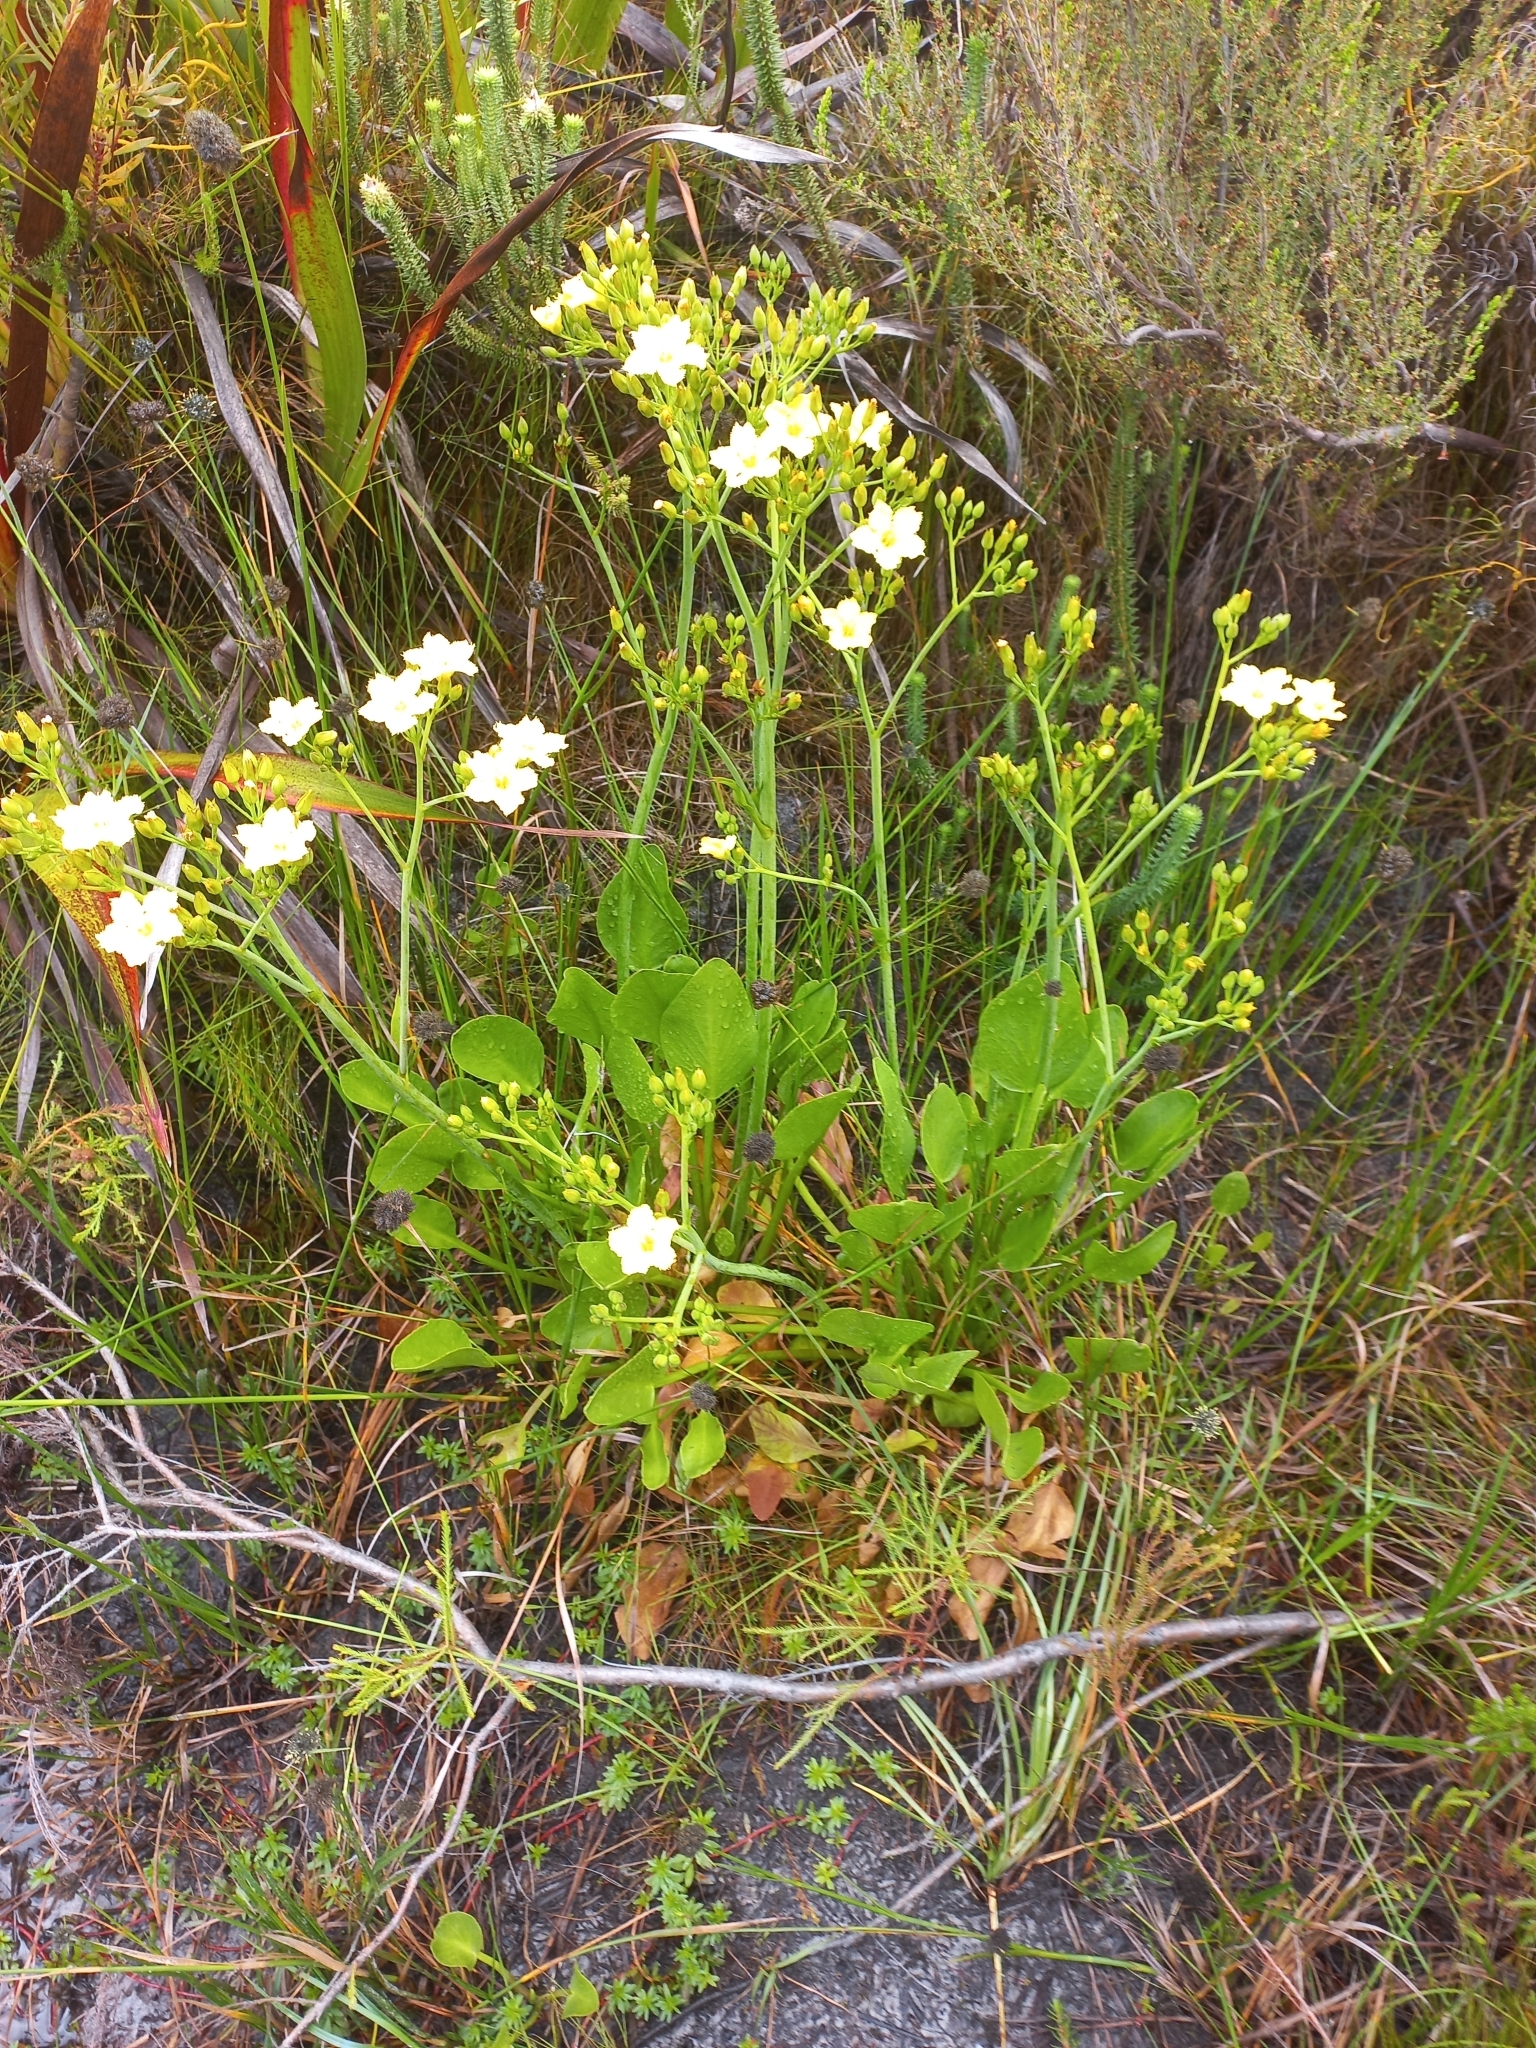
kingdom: Plantae
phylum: Tracheophyta
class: Magnoliopsida
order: Asterales
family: Menyanthaceae
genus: Villarsia
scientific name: Villarsia goldblattiana
